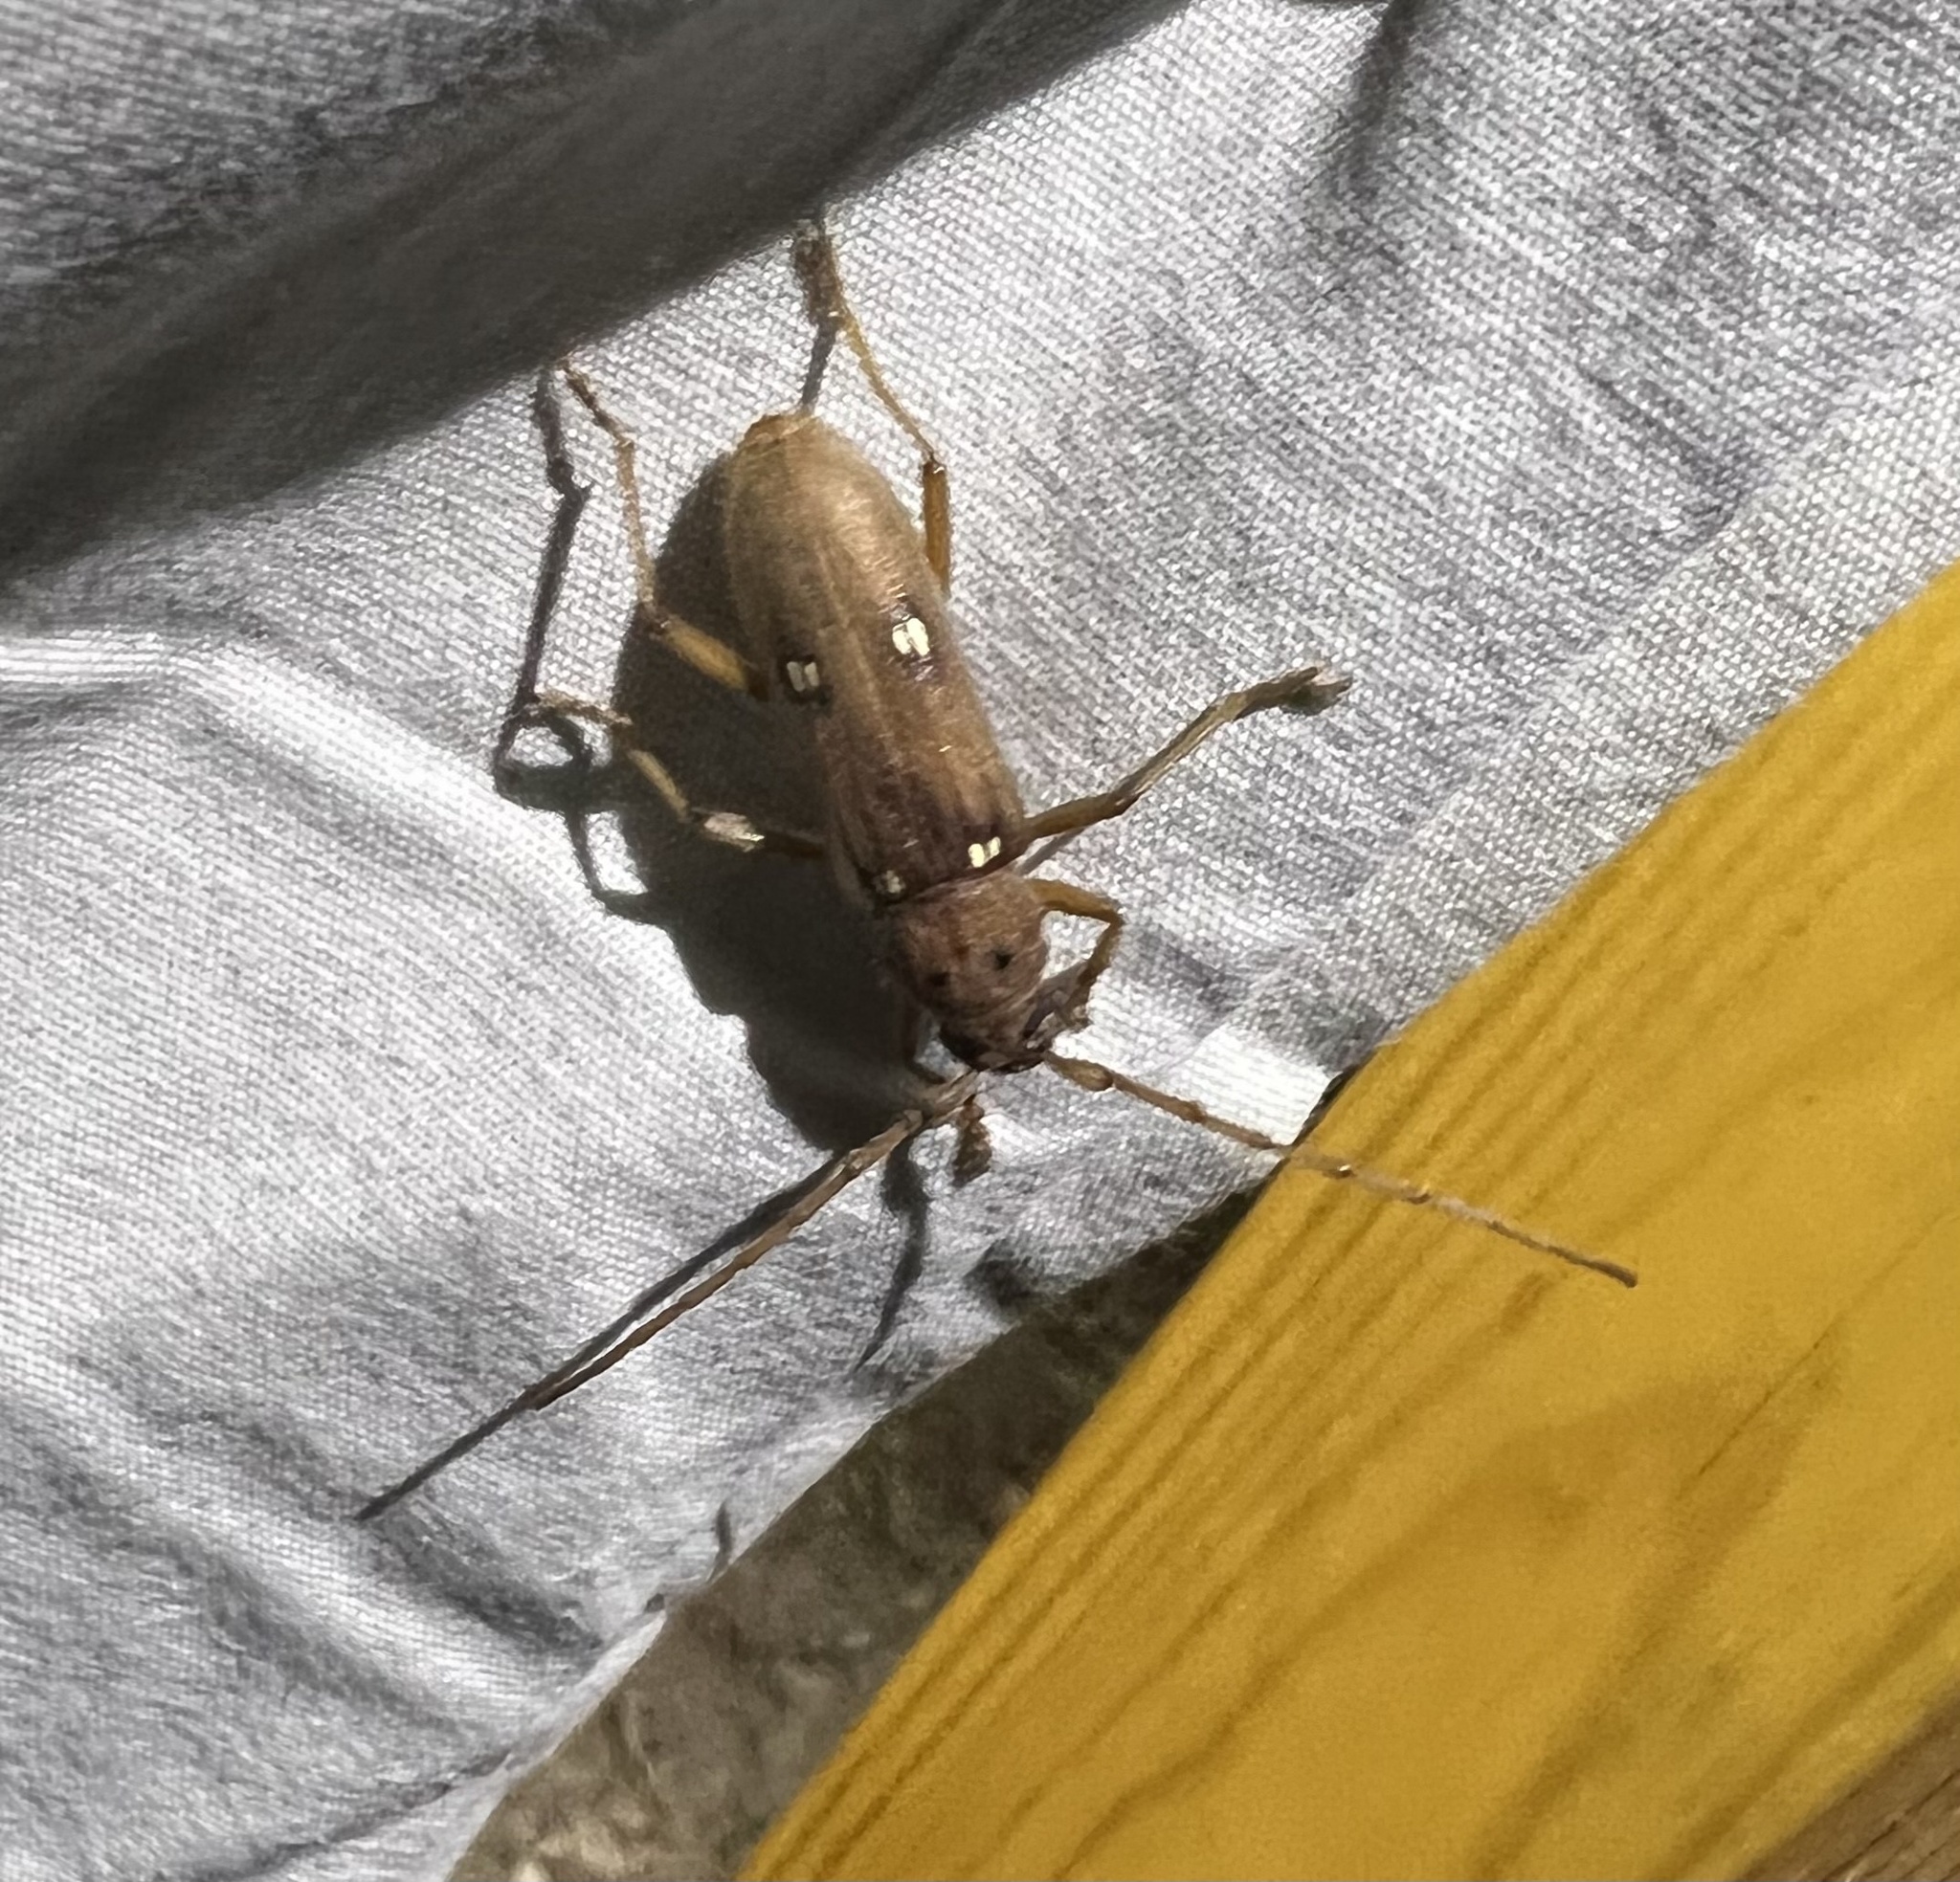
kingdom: Animalia
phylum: Arthropoda
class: Insecta
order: Coleoptera
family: Cerambycidae
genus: Eburia
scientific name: Eburia quadrigeminata
